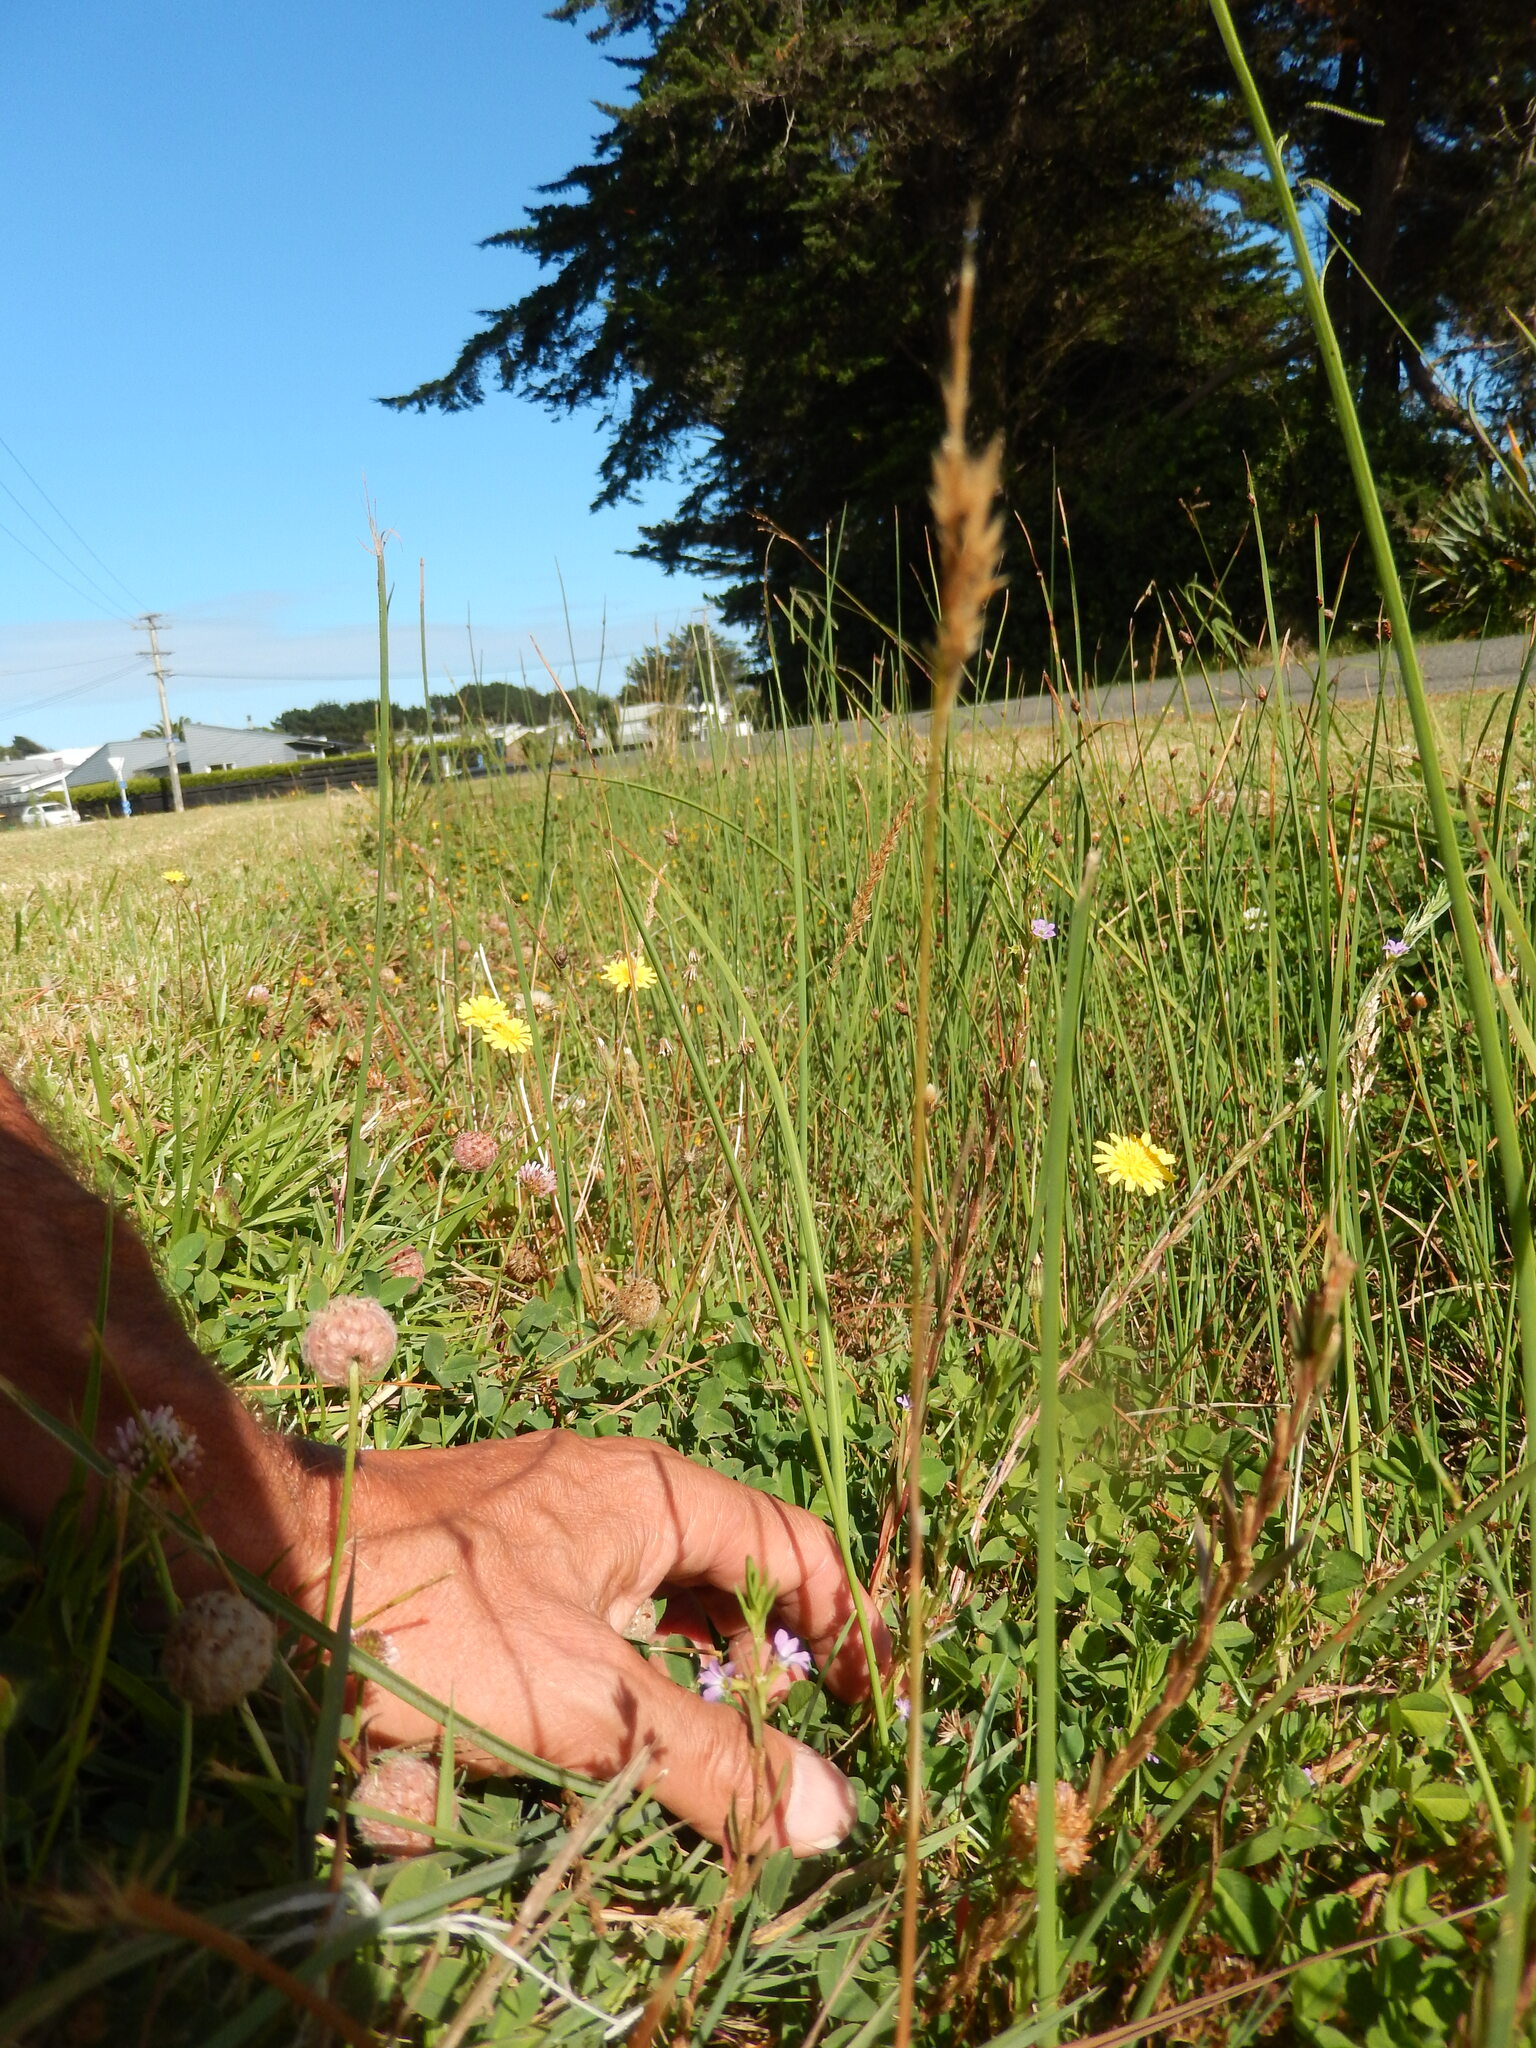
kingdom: Plantae
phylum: Tracheophyta
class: Magnoliopsida
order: Myrtales
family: Lythraceae
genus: Lythrum
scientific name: Lythrum hyssopifolia
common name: Grass-poly
